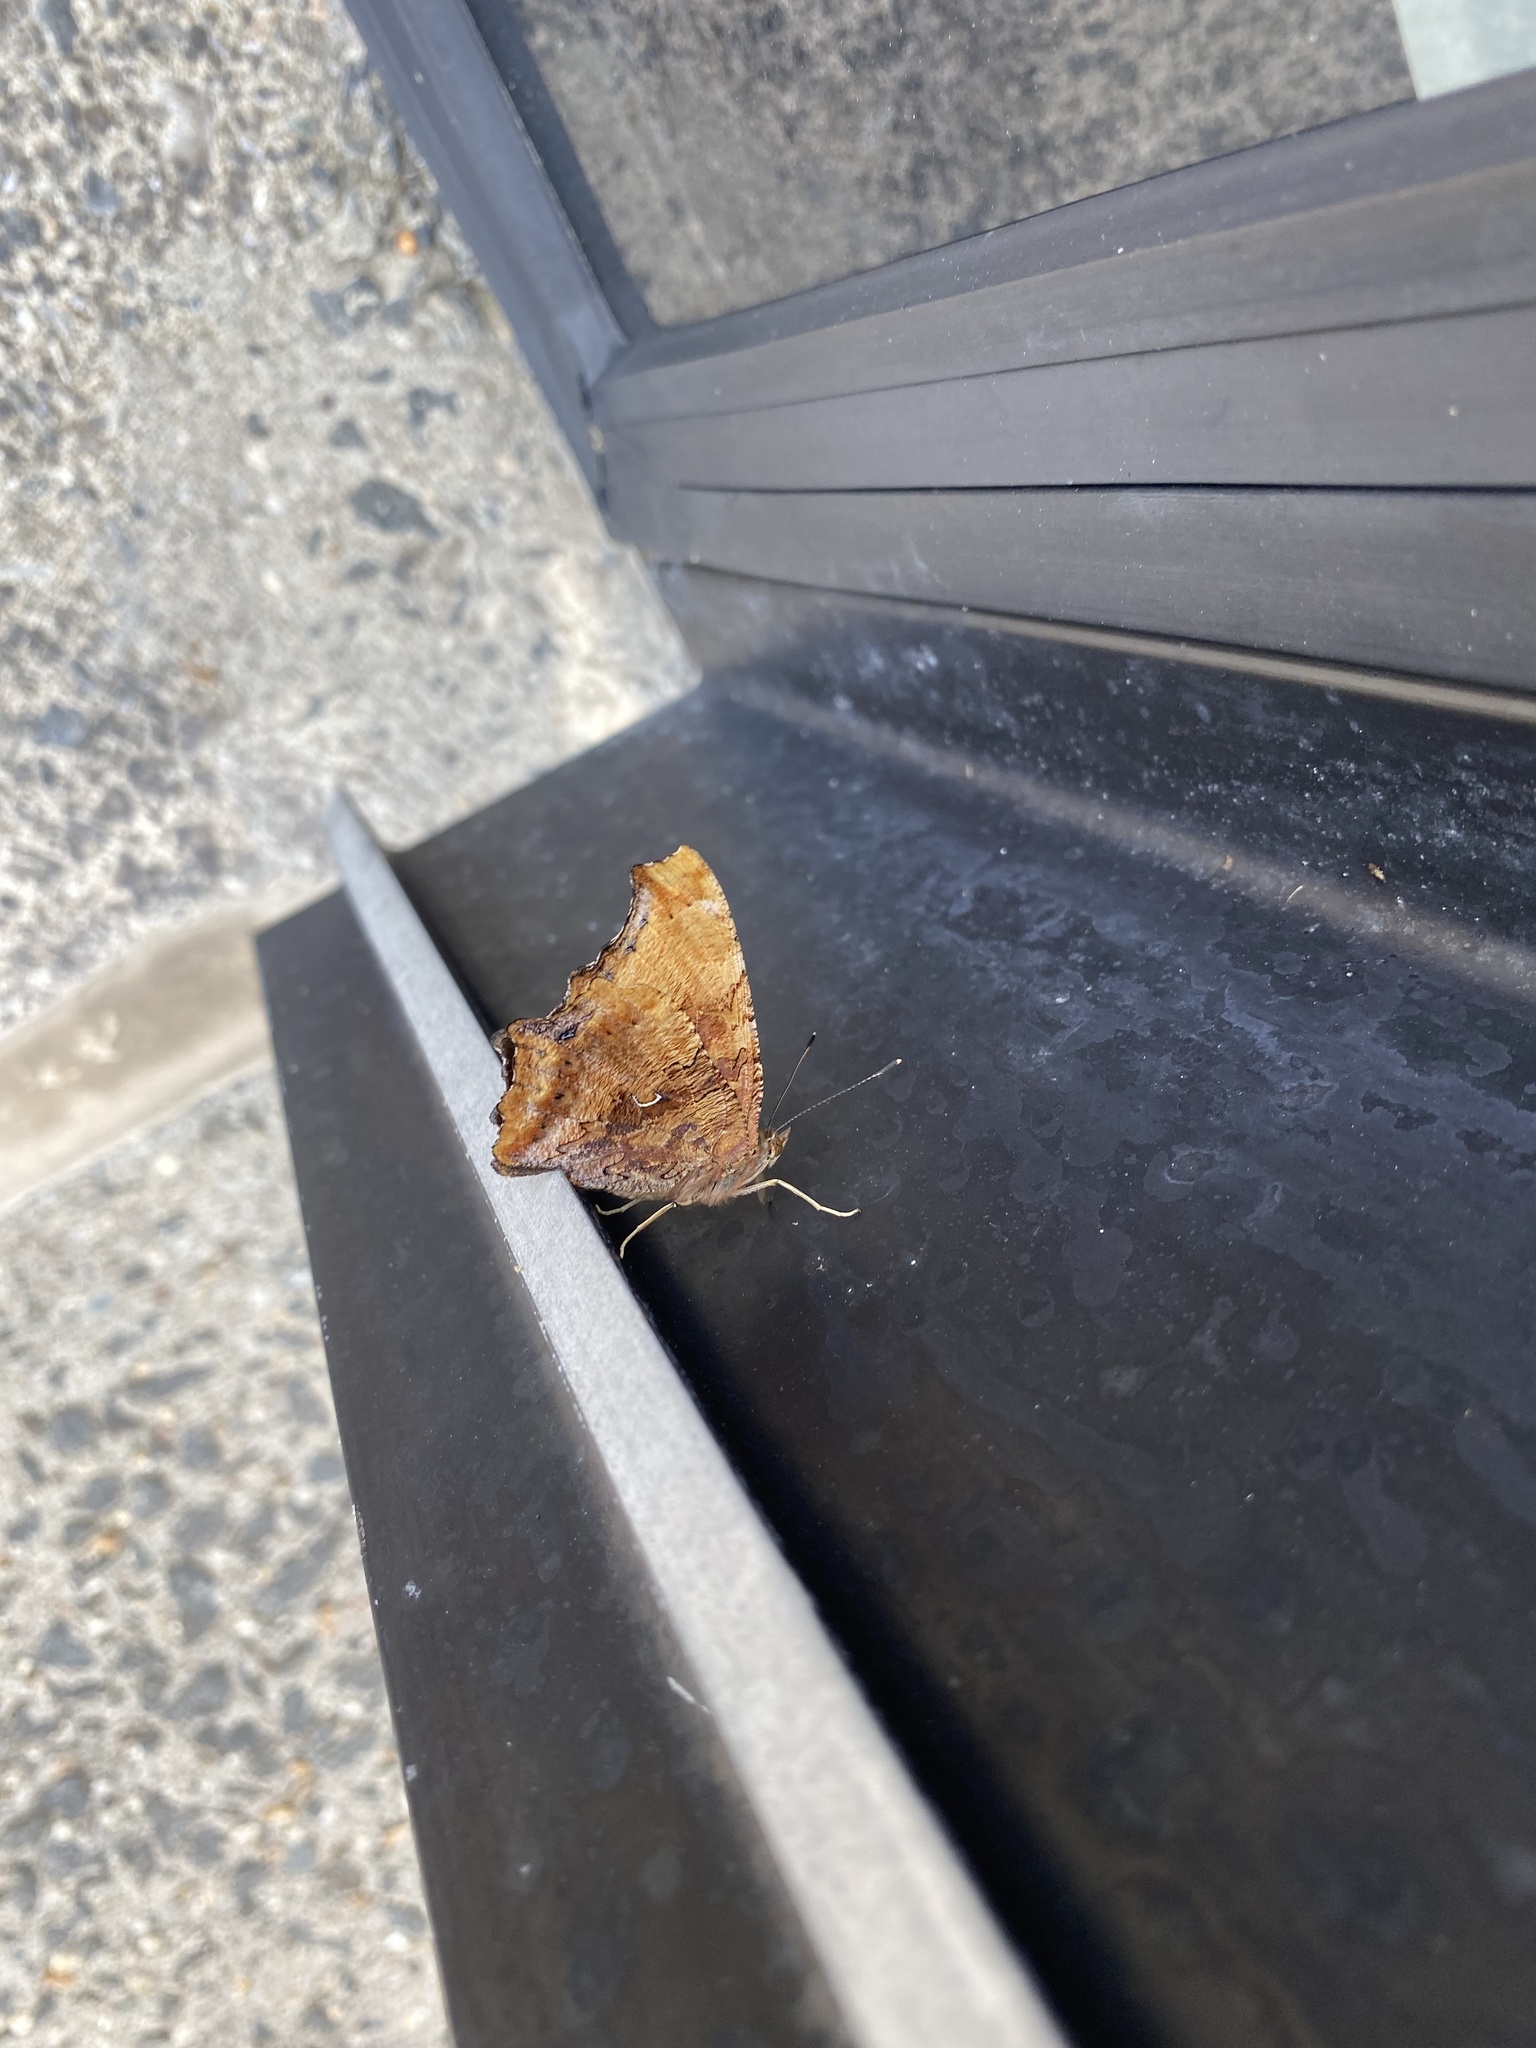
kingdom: Animalia
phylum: Arthropoda
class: Insecta
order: Lepidoptera
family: Nymphalidae
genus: Polygonia
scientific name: Polygonia comma
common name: Eastern comma
